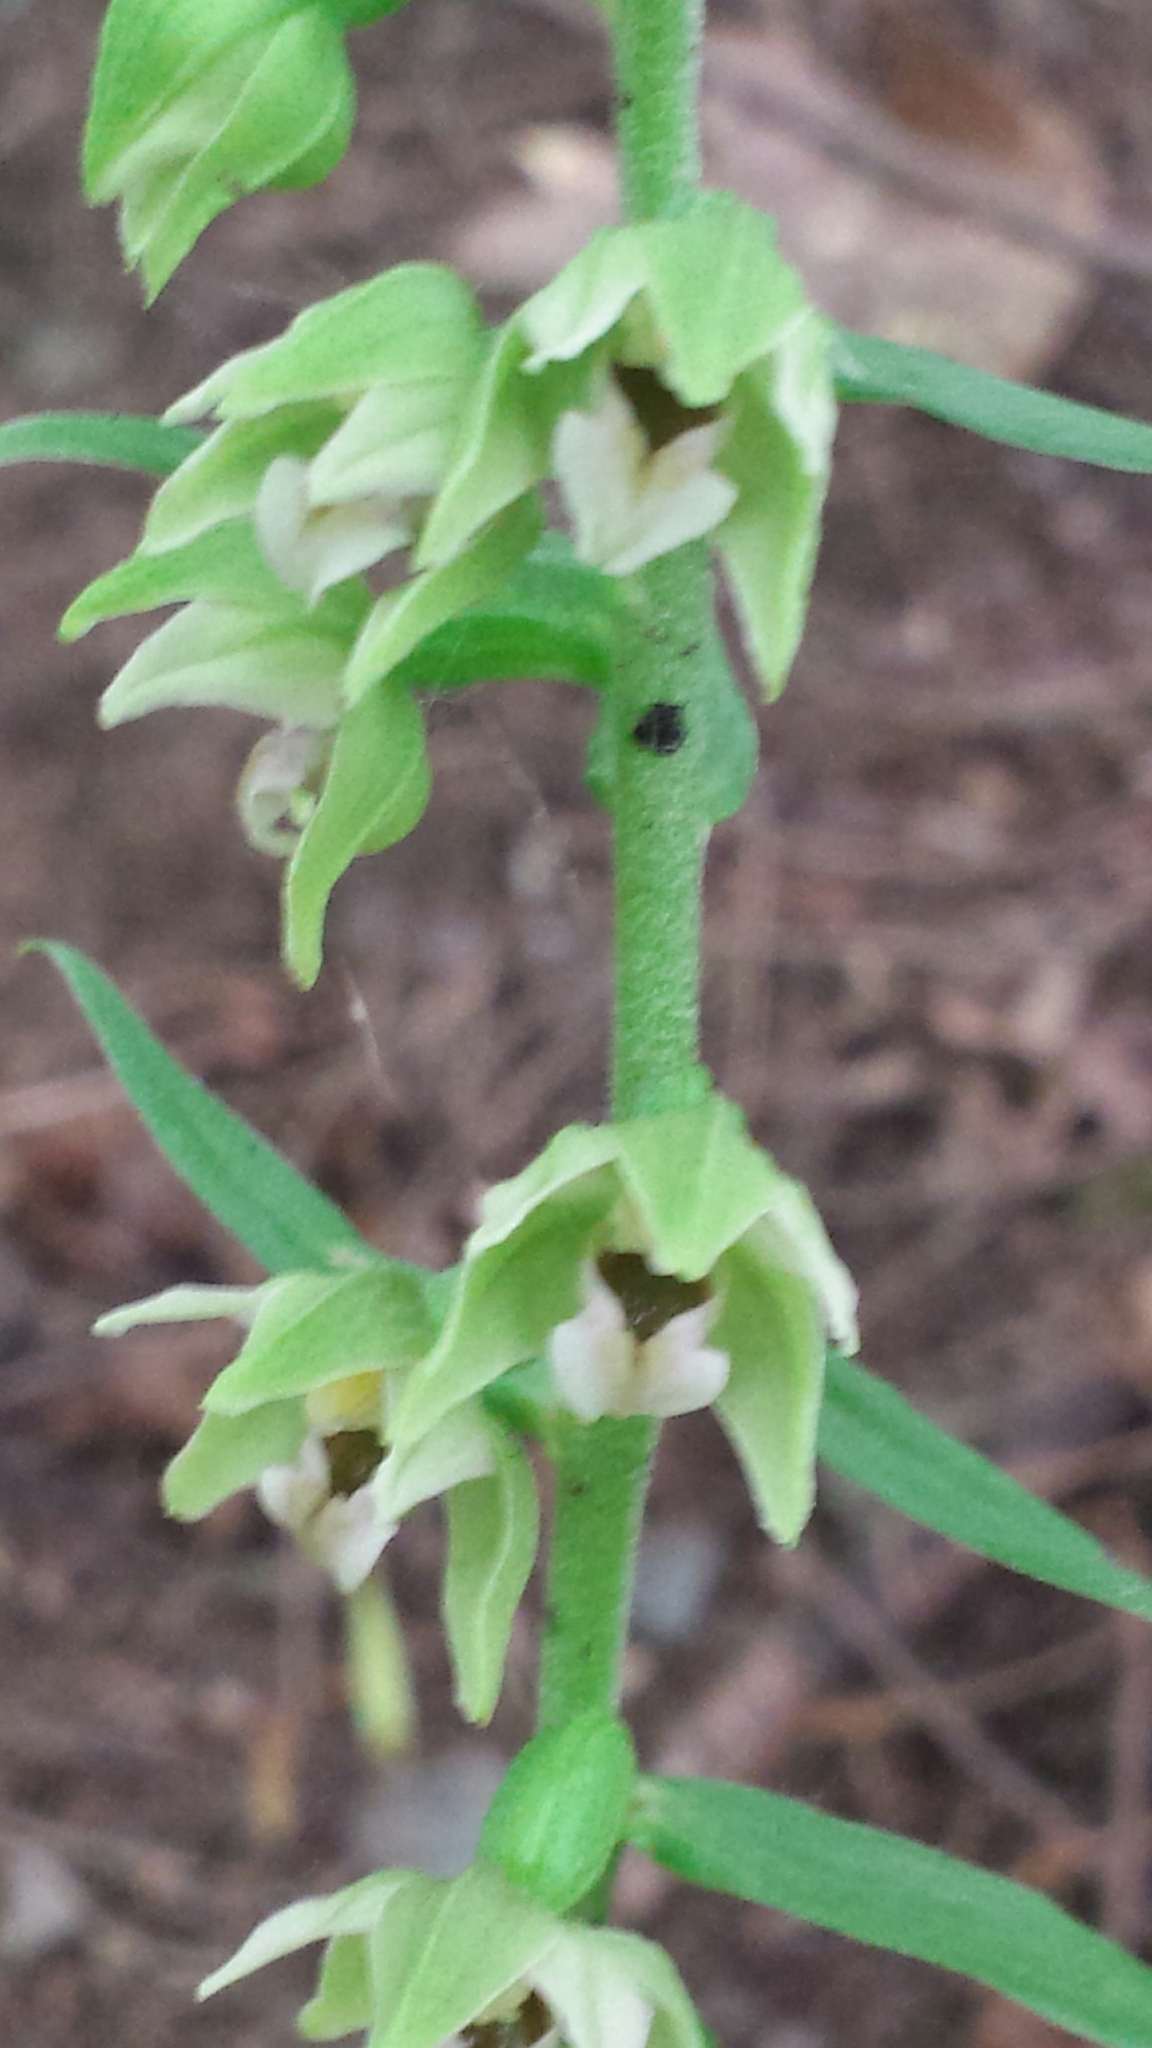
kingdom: Plantae
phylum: Tracheophyta
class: Liliopsida
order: Asparagales
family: Orchidaceae
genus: Epipactis
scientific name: Epipactis helleborine
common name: Broad-leaved helleborine
